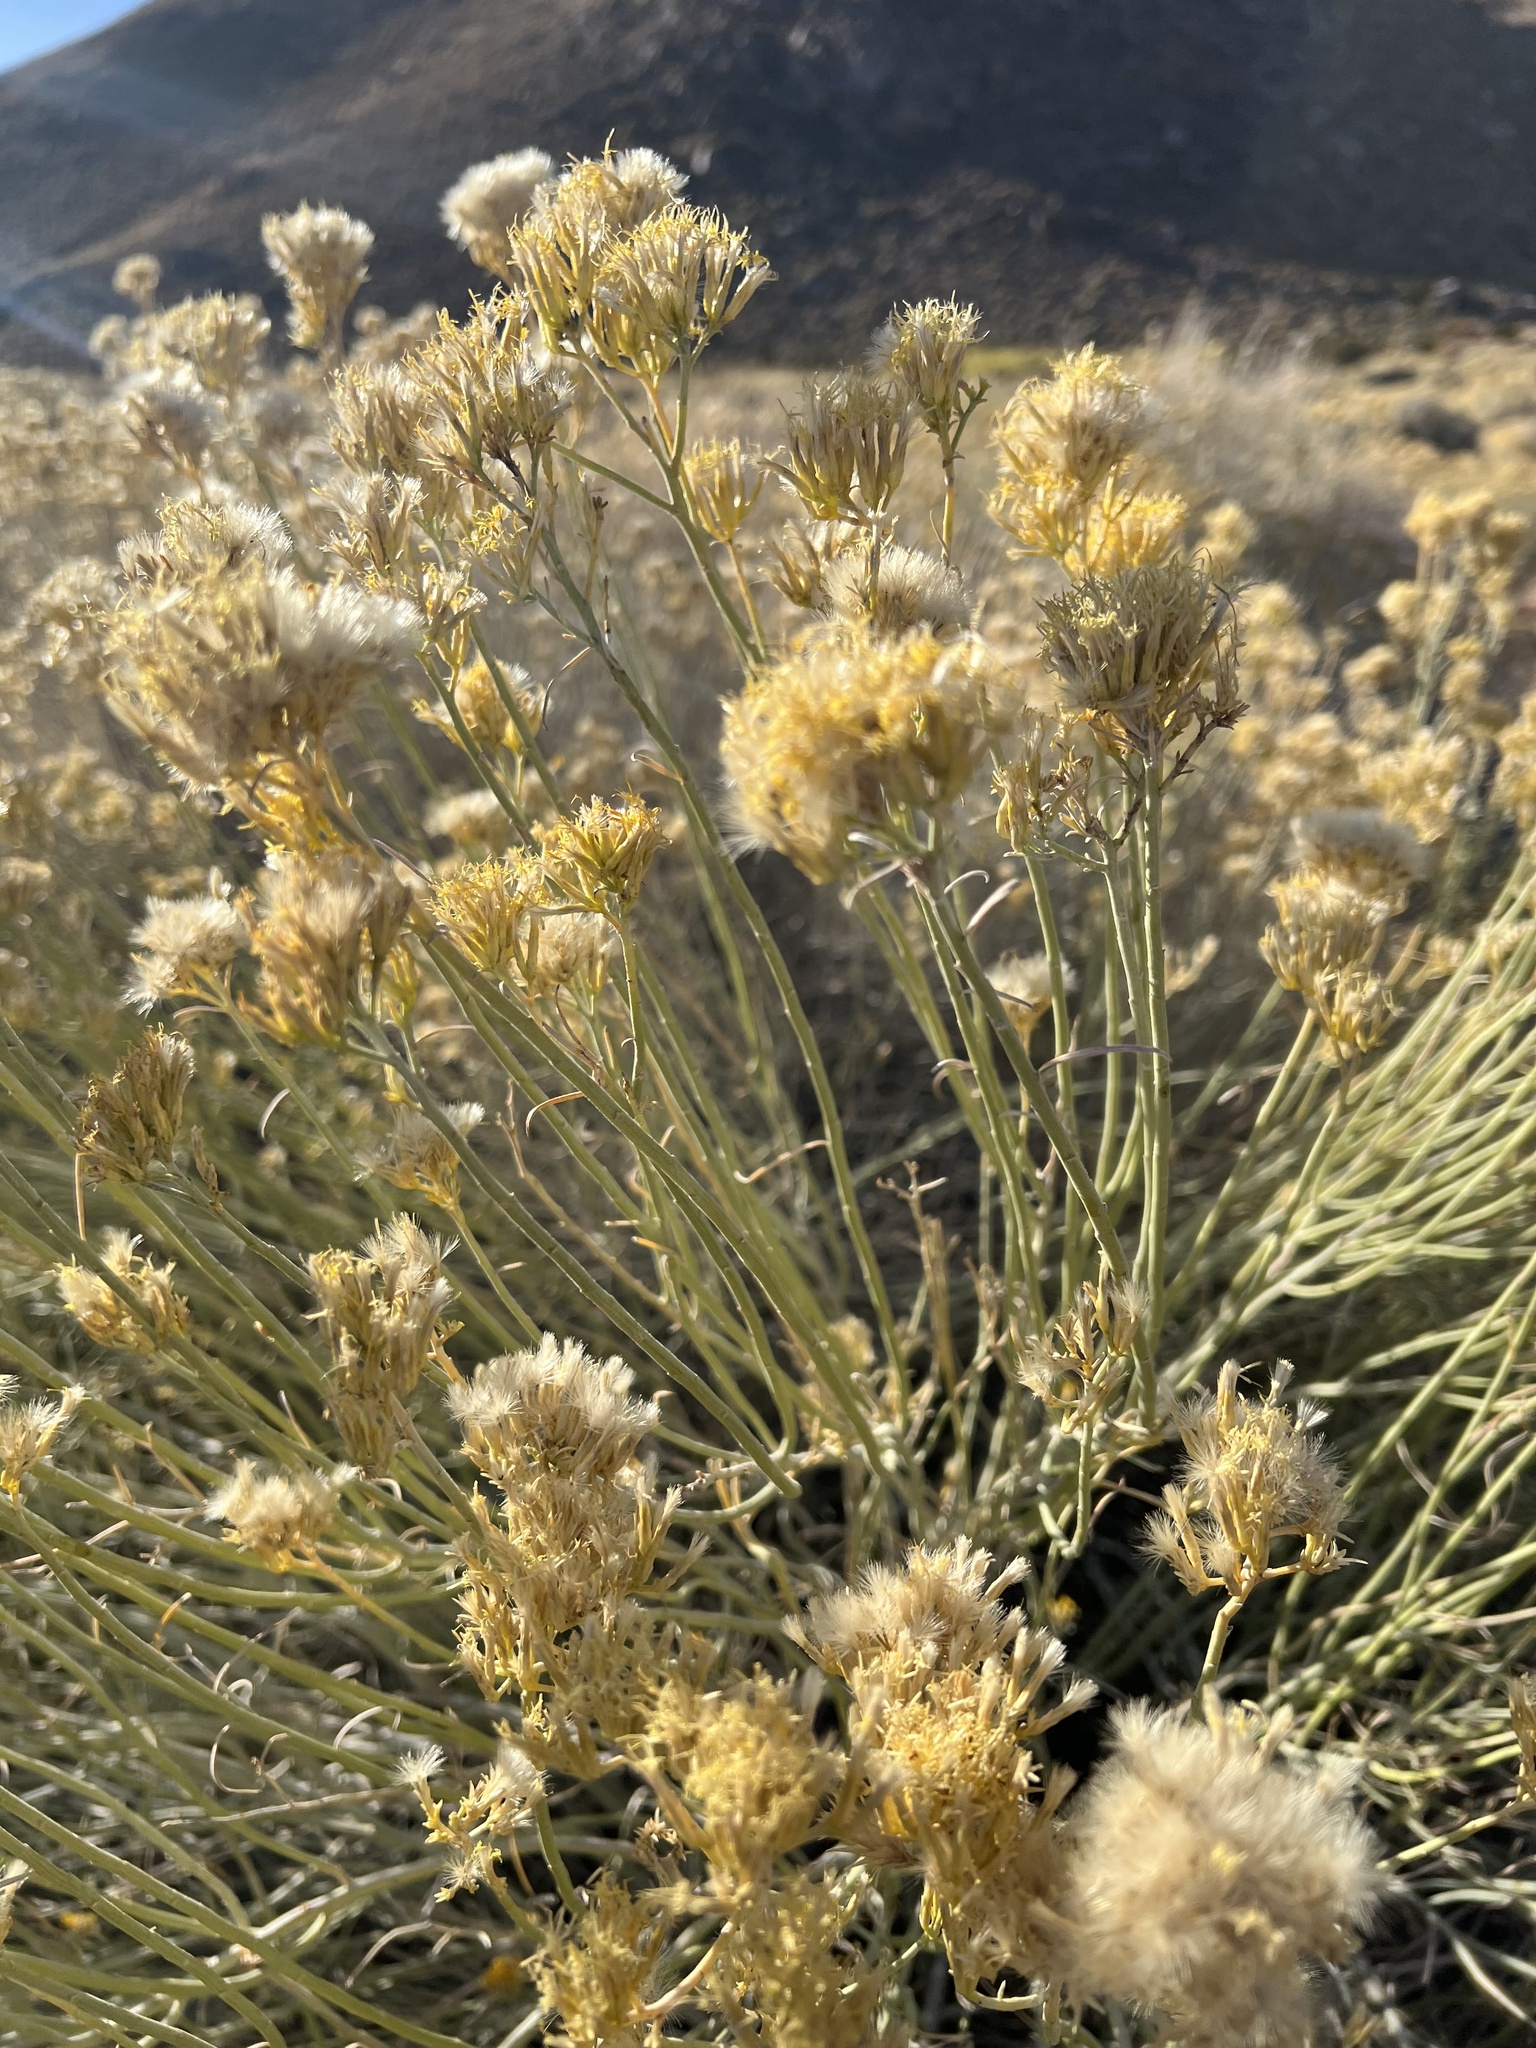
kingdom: Plantae
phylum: Tracheophyta
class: Magnoliopsida
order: Asterales
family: Asteraceae
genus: Ericameria
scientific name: Ericameria nauseosa
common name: Rubber rabbitbrush
